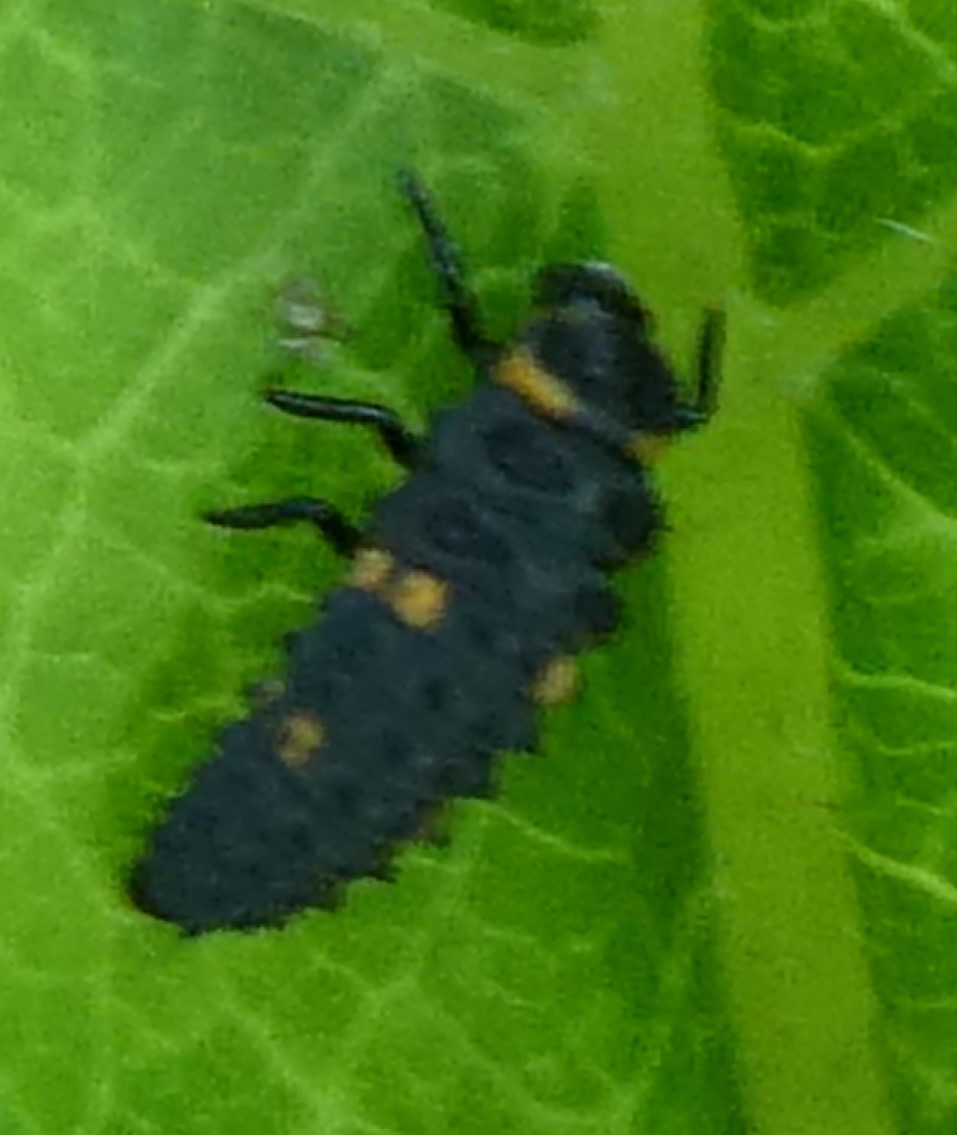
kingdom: Animalia
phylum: Arthropoda
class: Insecta
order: Coleoptera
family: Coccinellidae
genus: Coccinella
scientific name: Coccinella septempunctata
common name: Sevenspotted lady beetle
